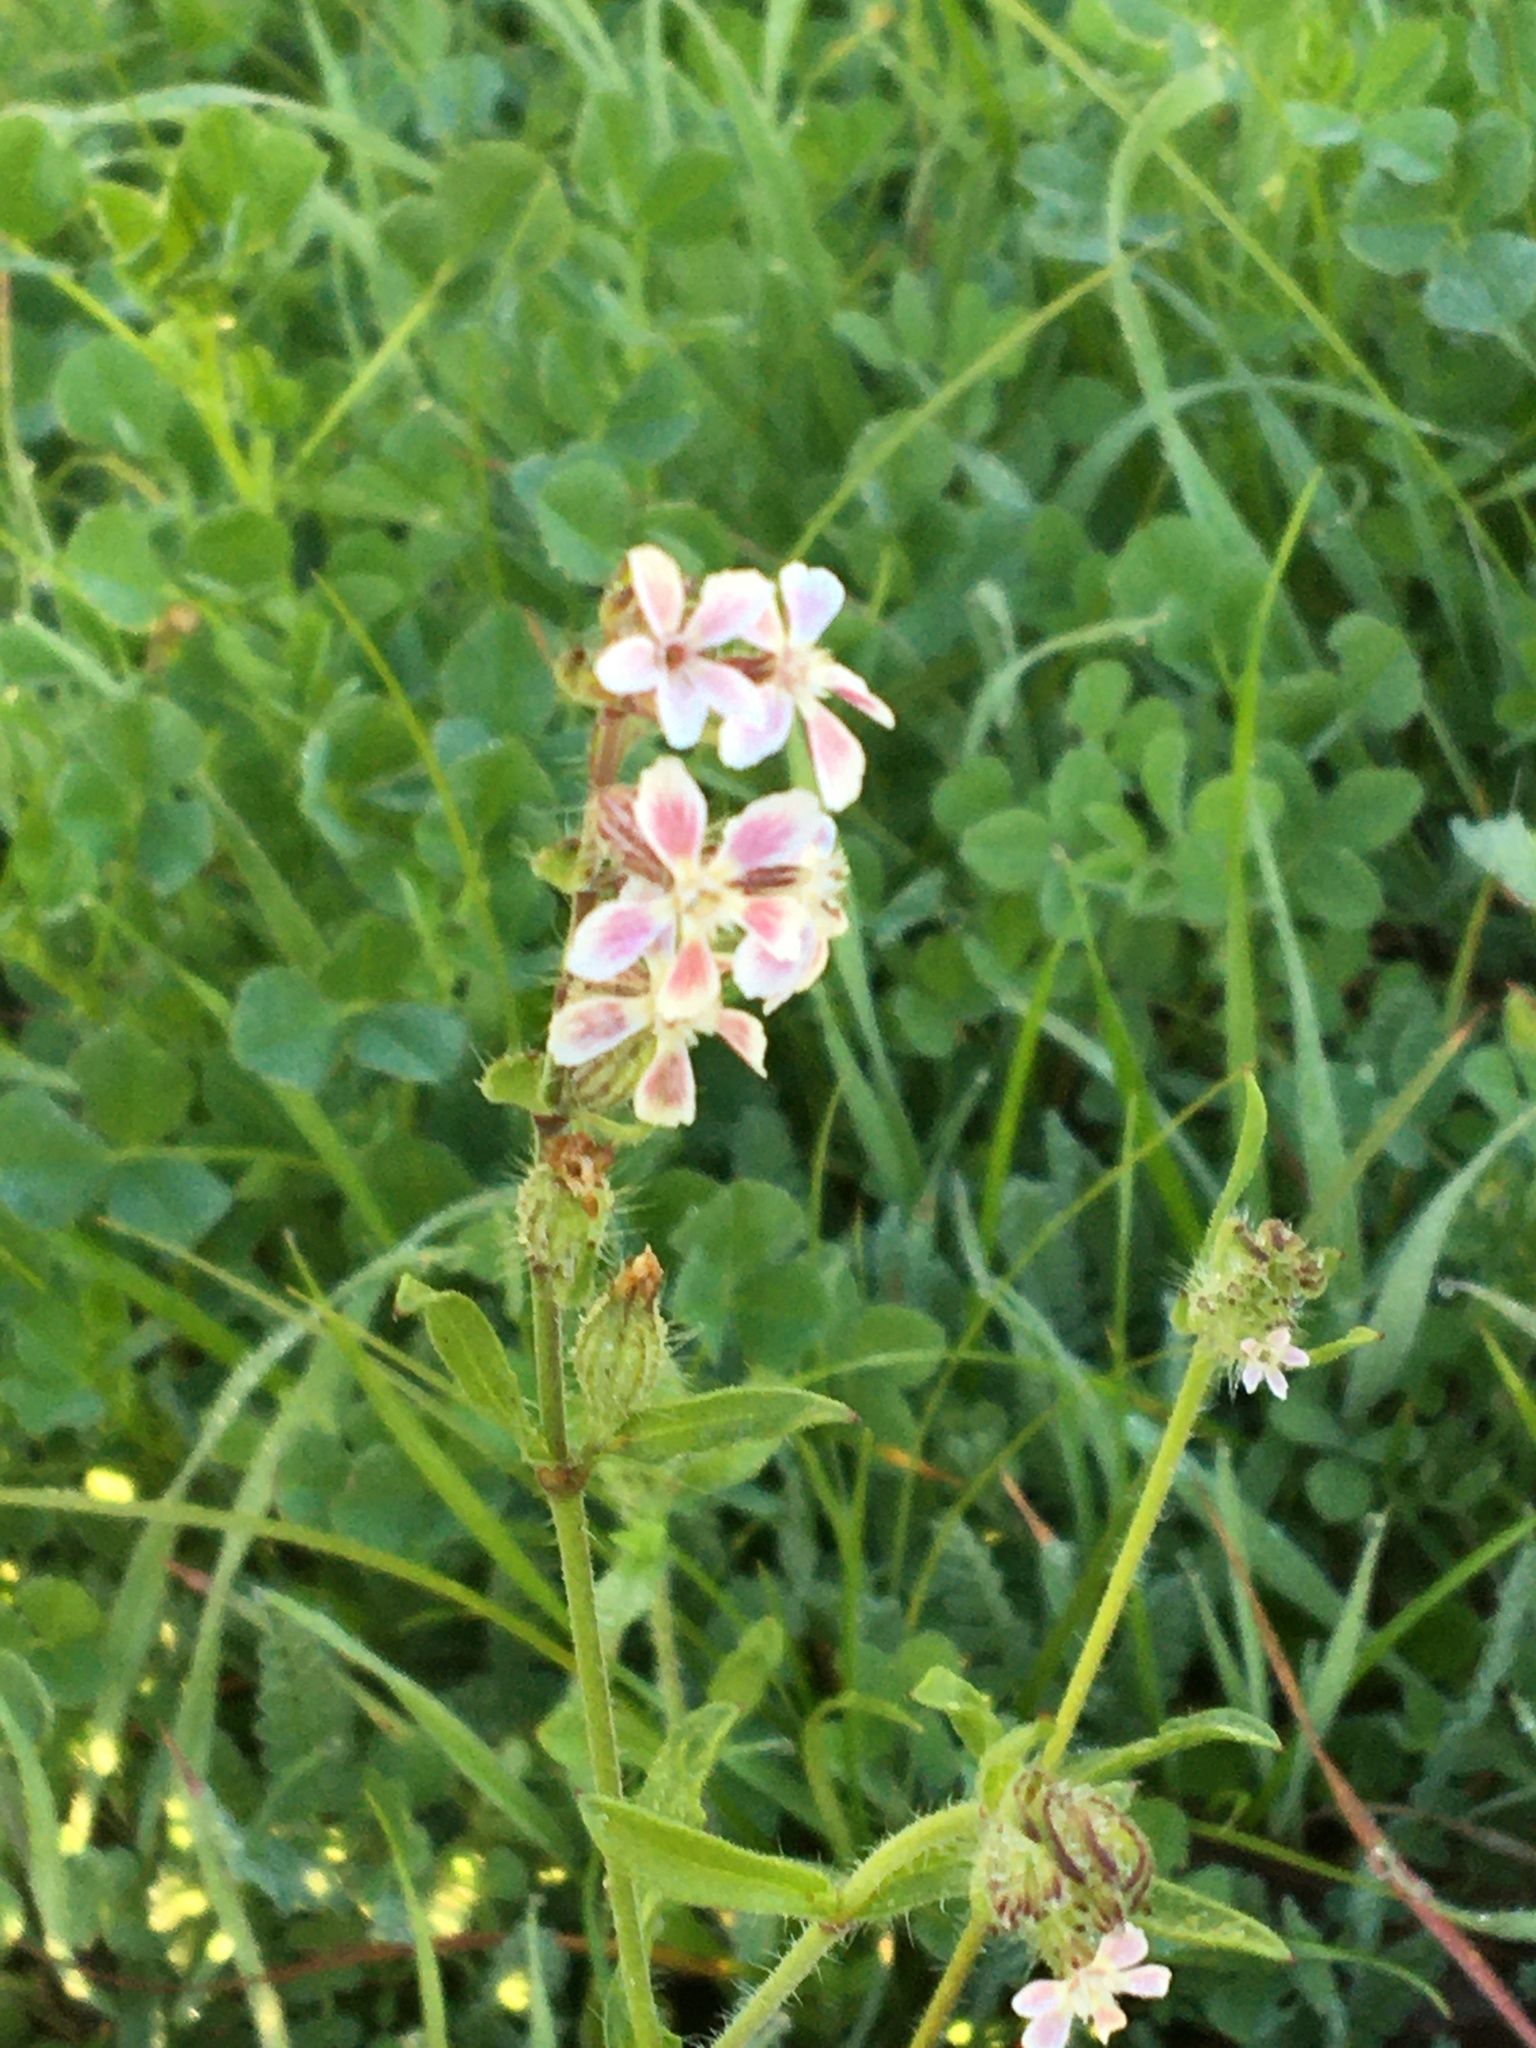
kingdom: Plantae
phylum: Tracheophyta
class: Magnoliopsida
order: Caryophyllales
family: Caryophyllaceae
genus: Silene
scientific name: Silene gallica
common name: Small-flowered catchfly
